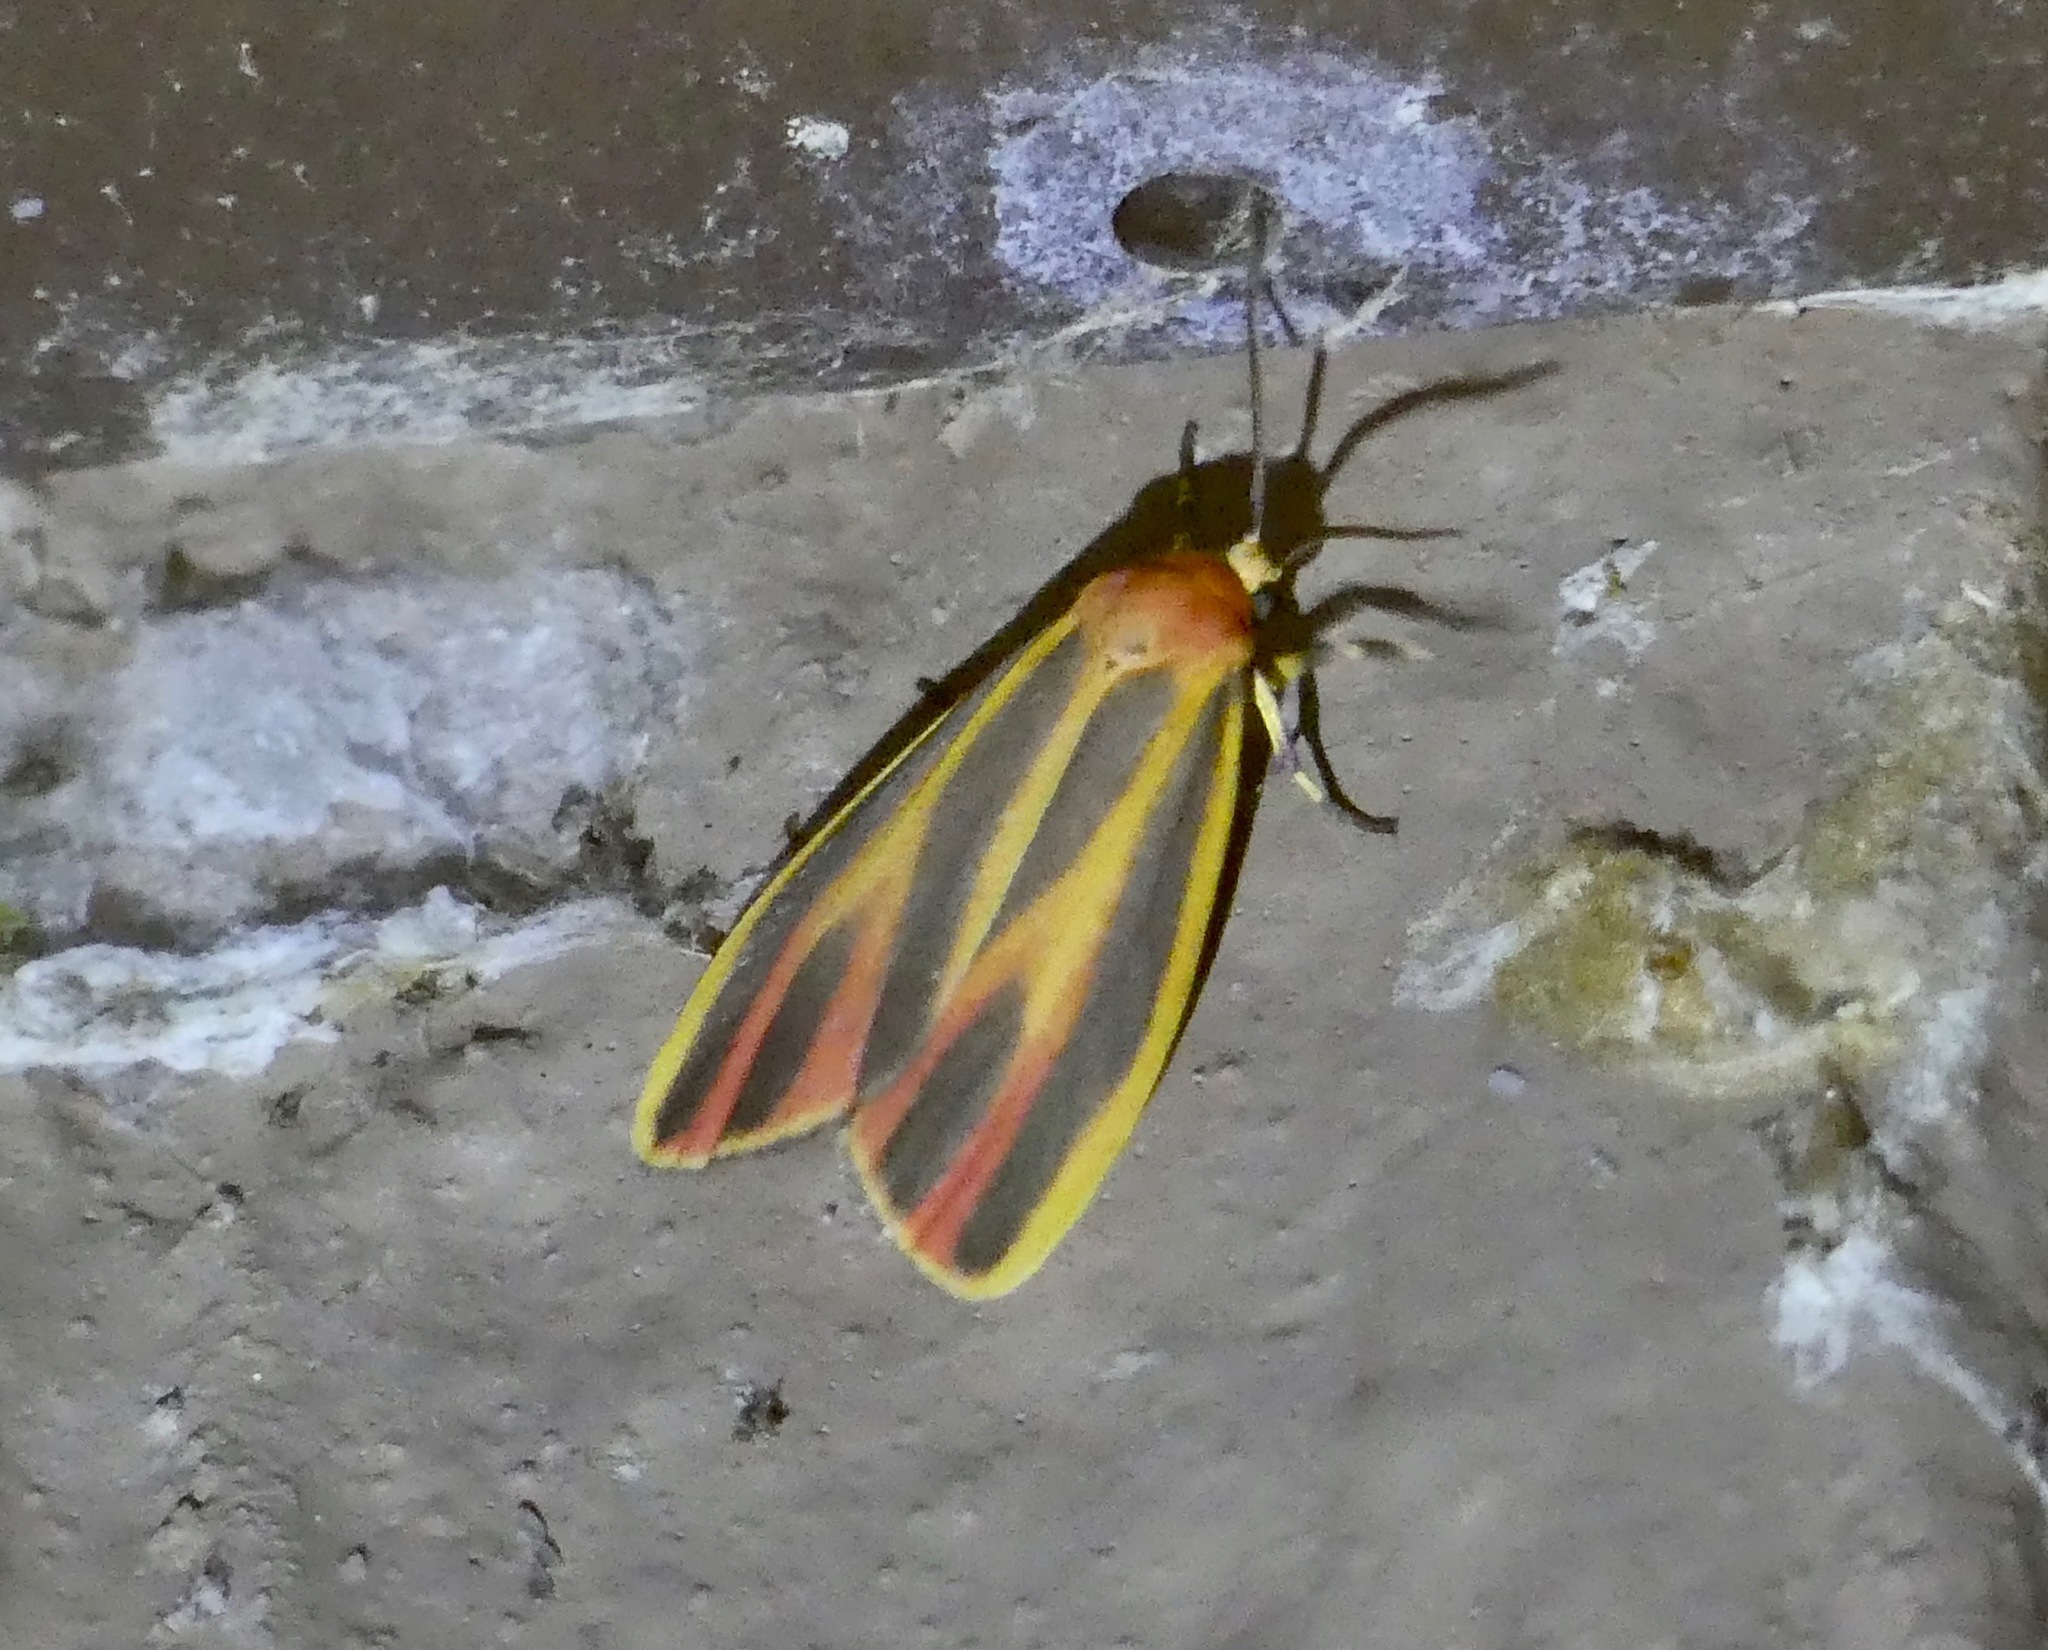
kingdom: Animalia
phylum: Arthropoda
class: Insecta
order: Lepidoptera
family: Erebidae
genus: Hypoprepia
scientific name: Hypoprepia fucosa
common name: Painted lichen moth
